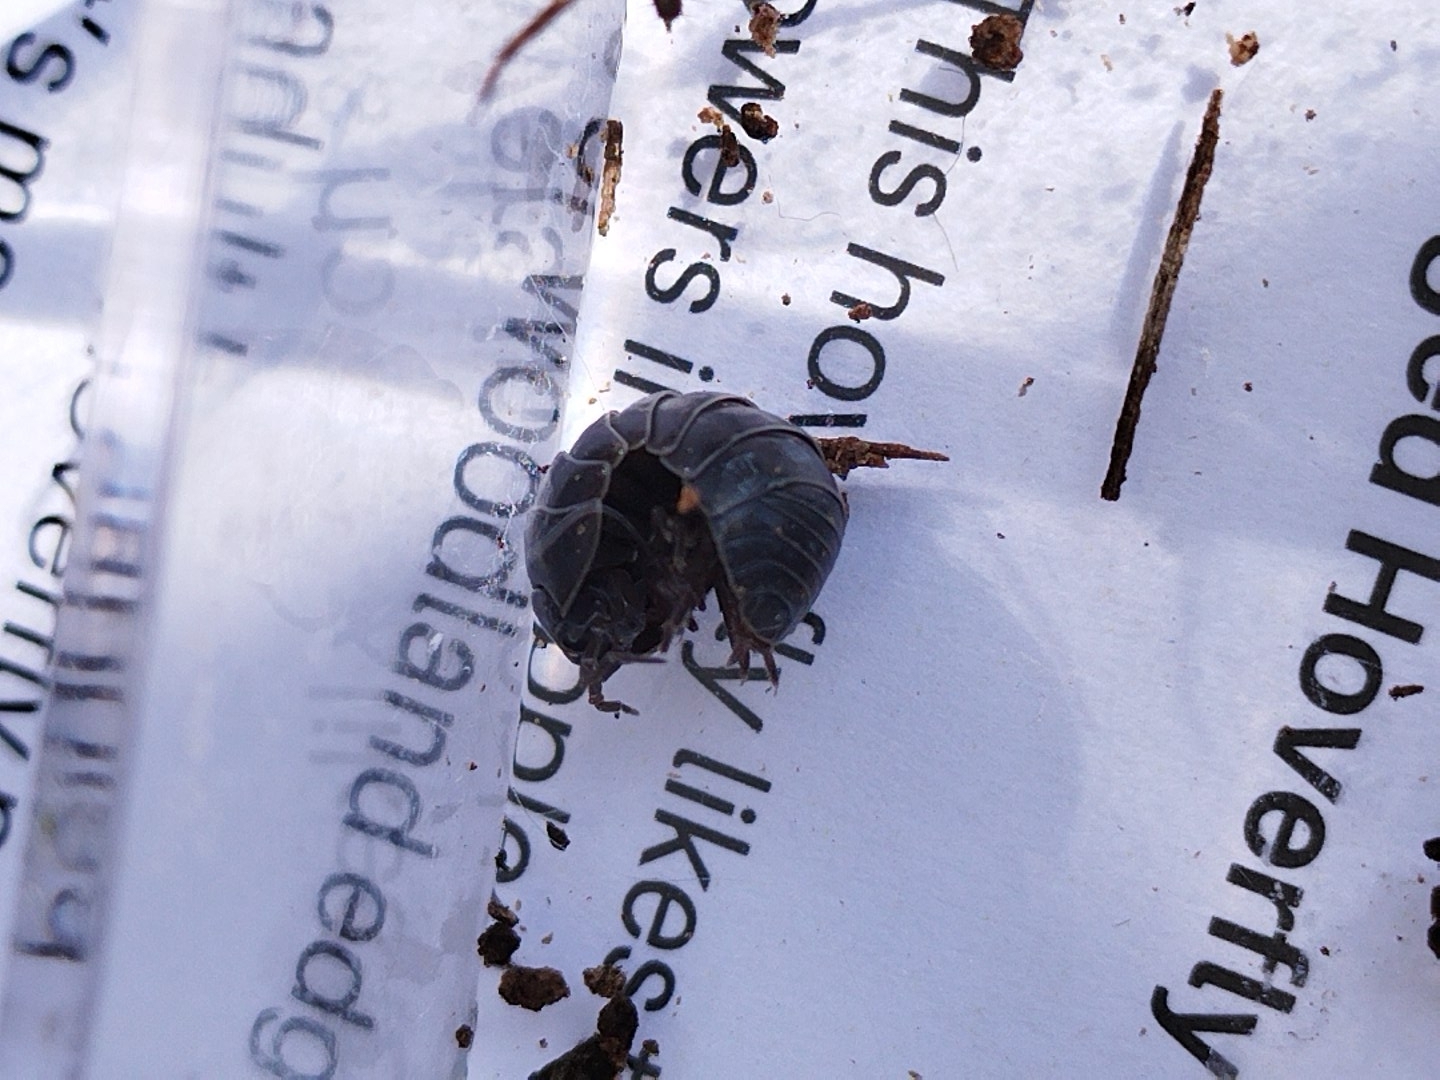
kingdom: Animalia
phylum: Arthropoda
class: Malacostraca
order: Isopoda
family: Armadillidiidae
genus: Armadillidium
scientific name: Armadillidium vulgare
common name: Common pill woodlouse
